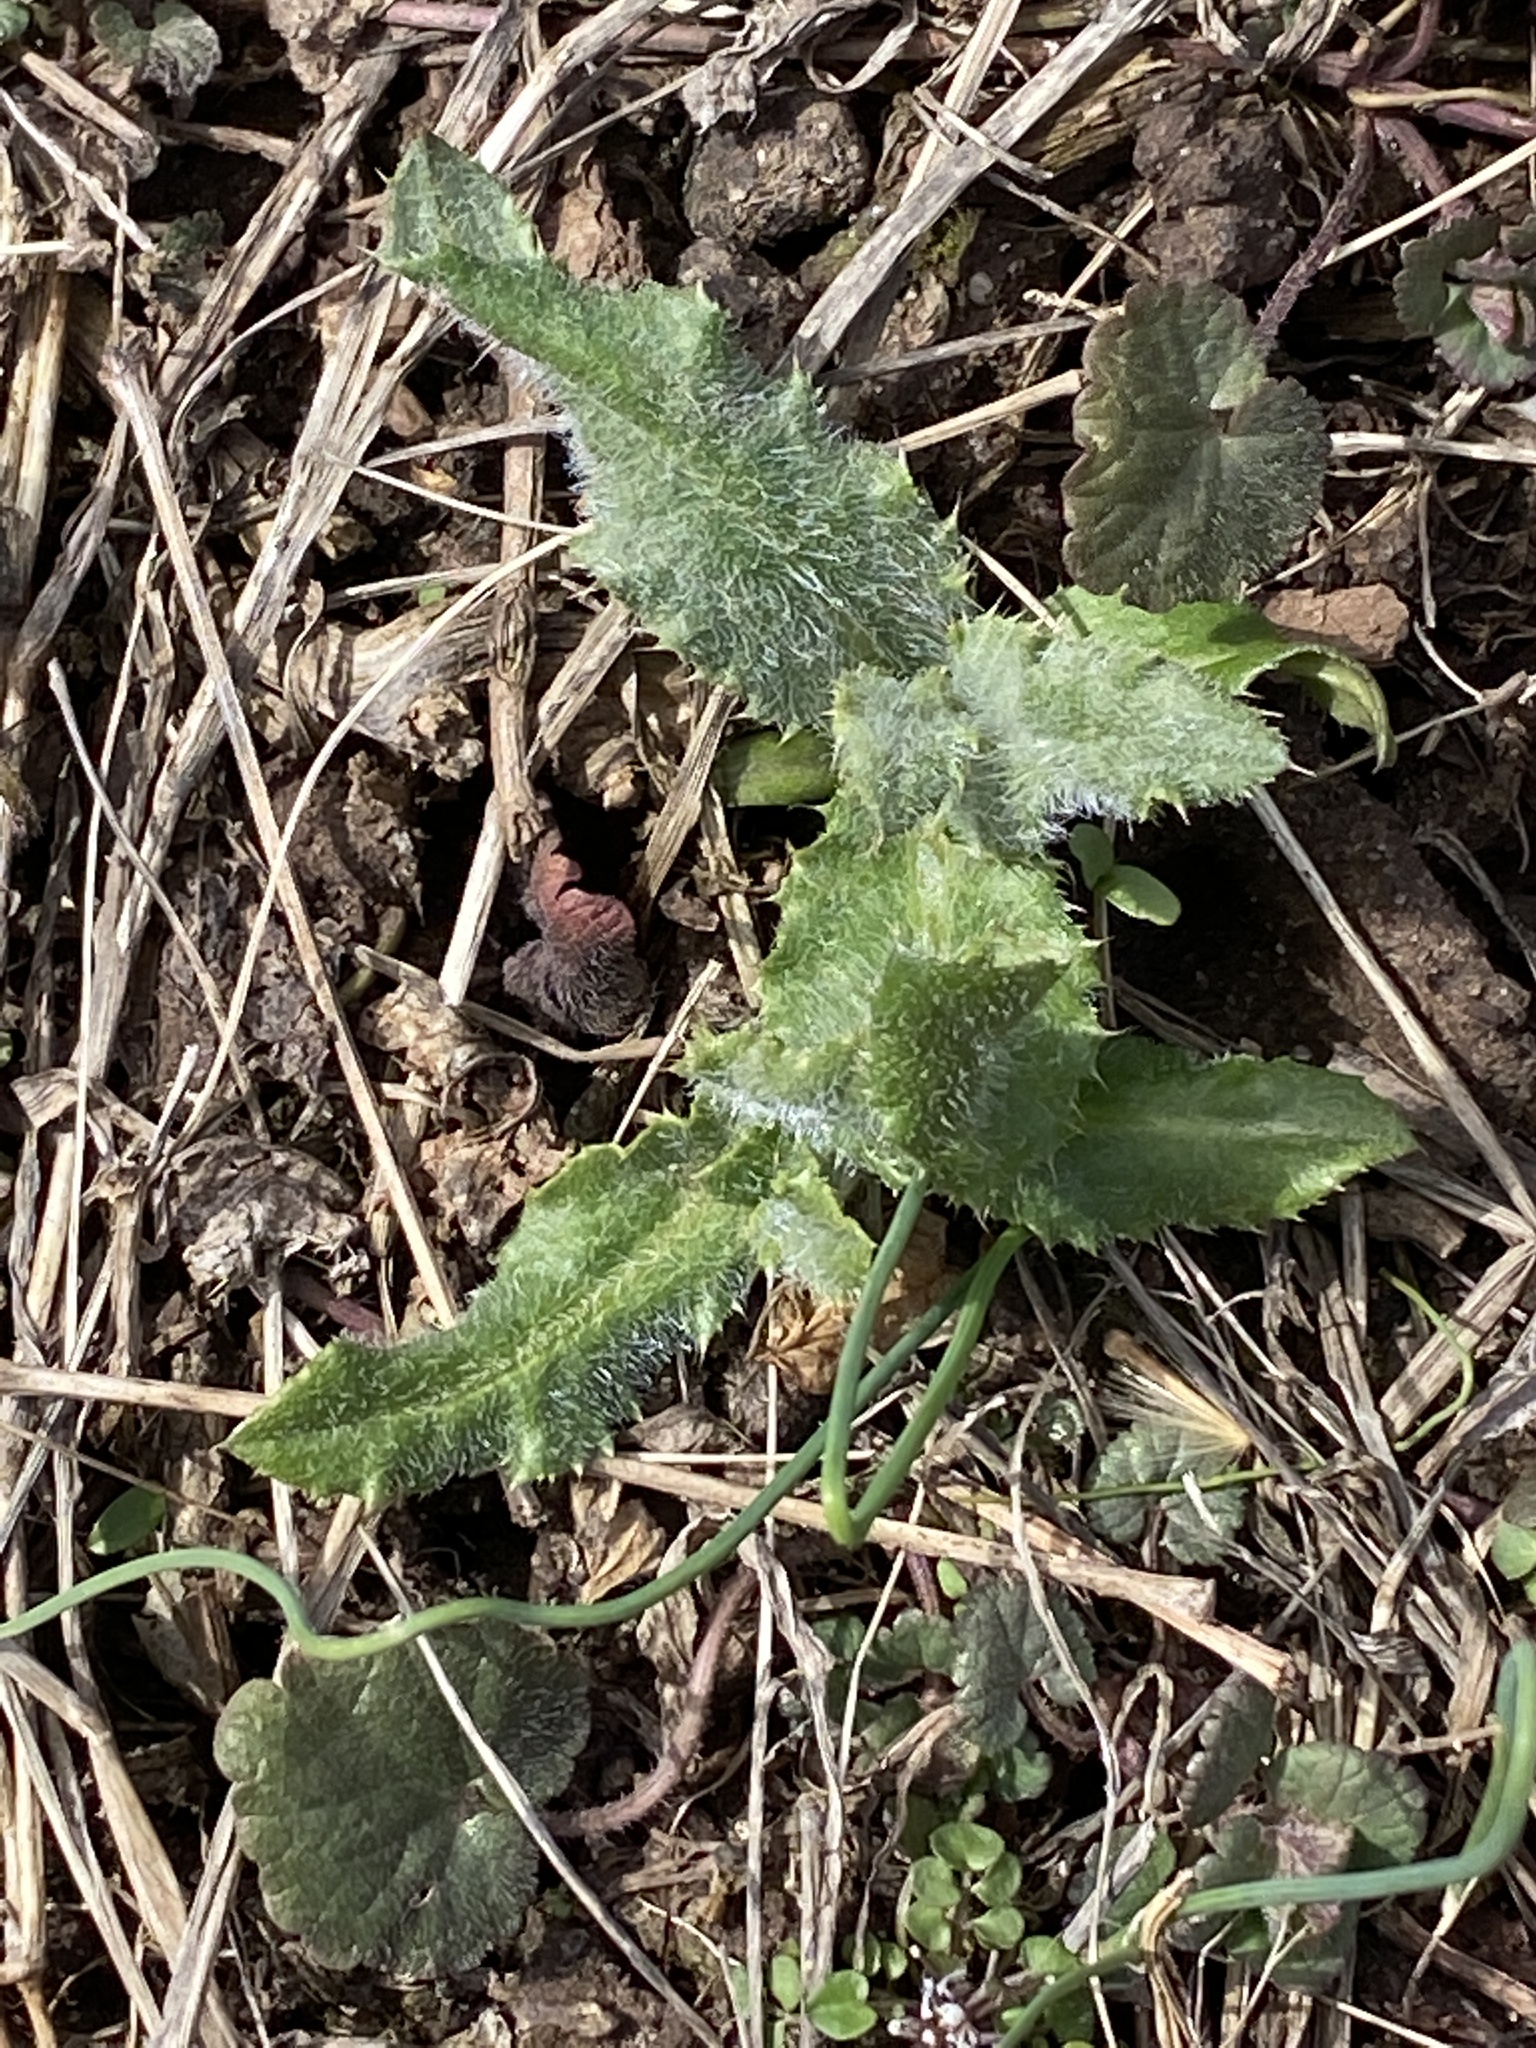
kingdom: Plantae
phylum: Tracheophyta
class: Magnoliopsida
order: Asterales
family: Asteraceae
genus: Cirsium
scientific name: Cirsium arvense
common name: Creeping thistle
